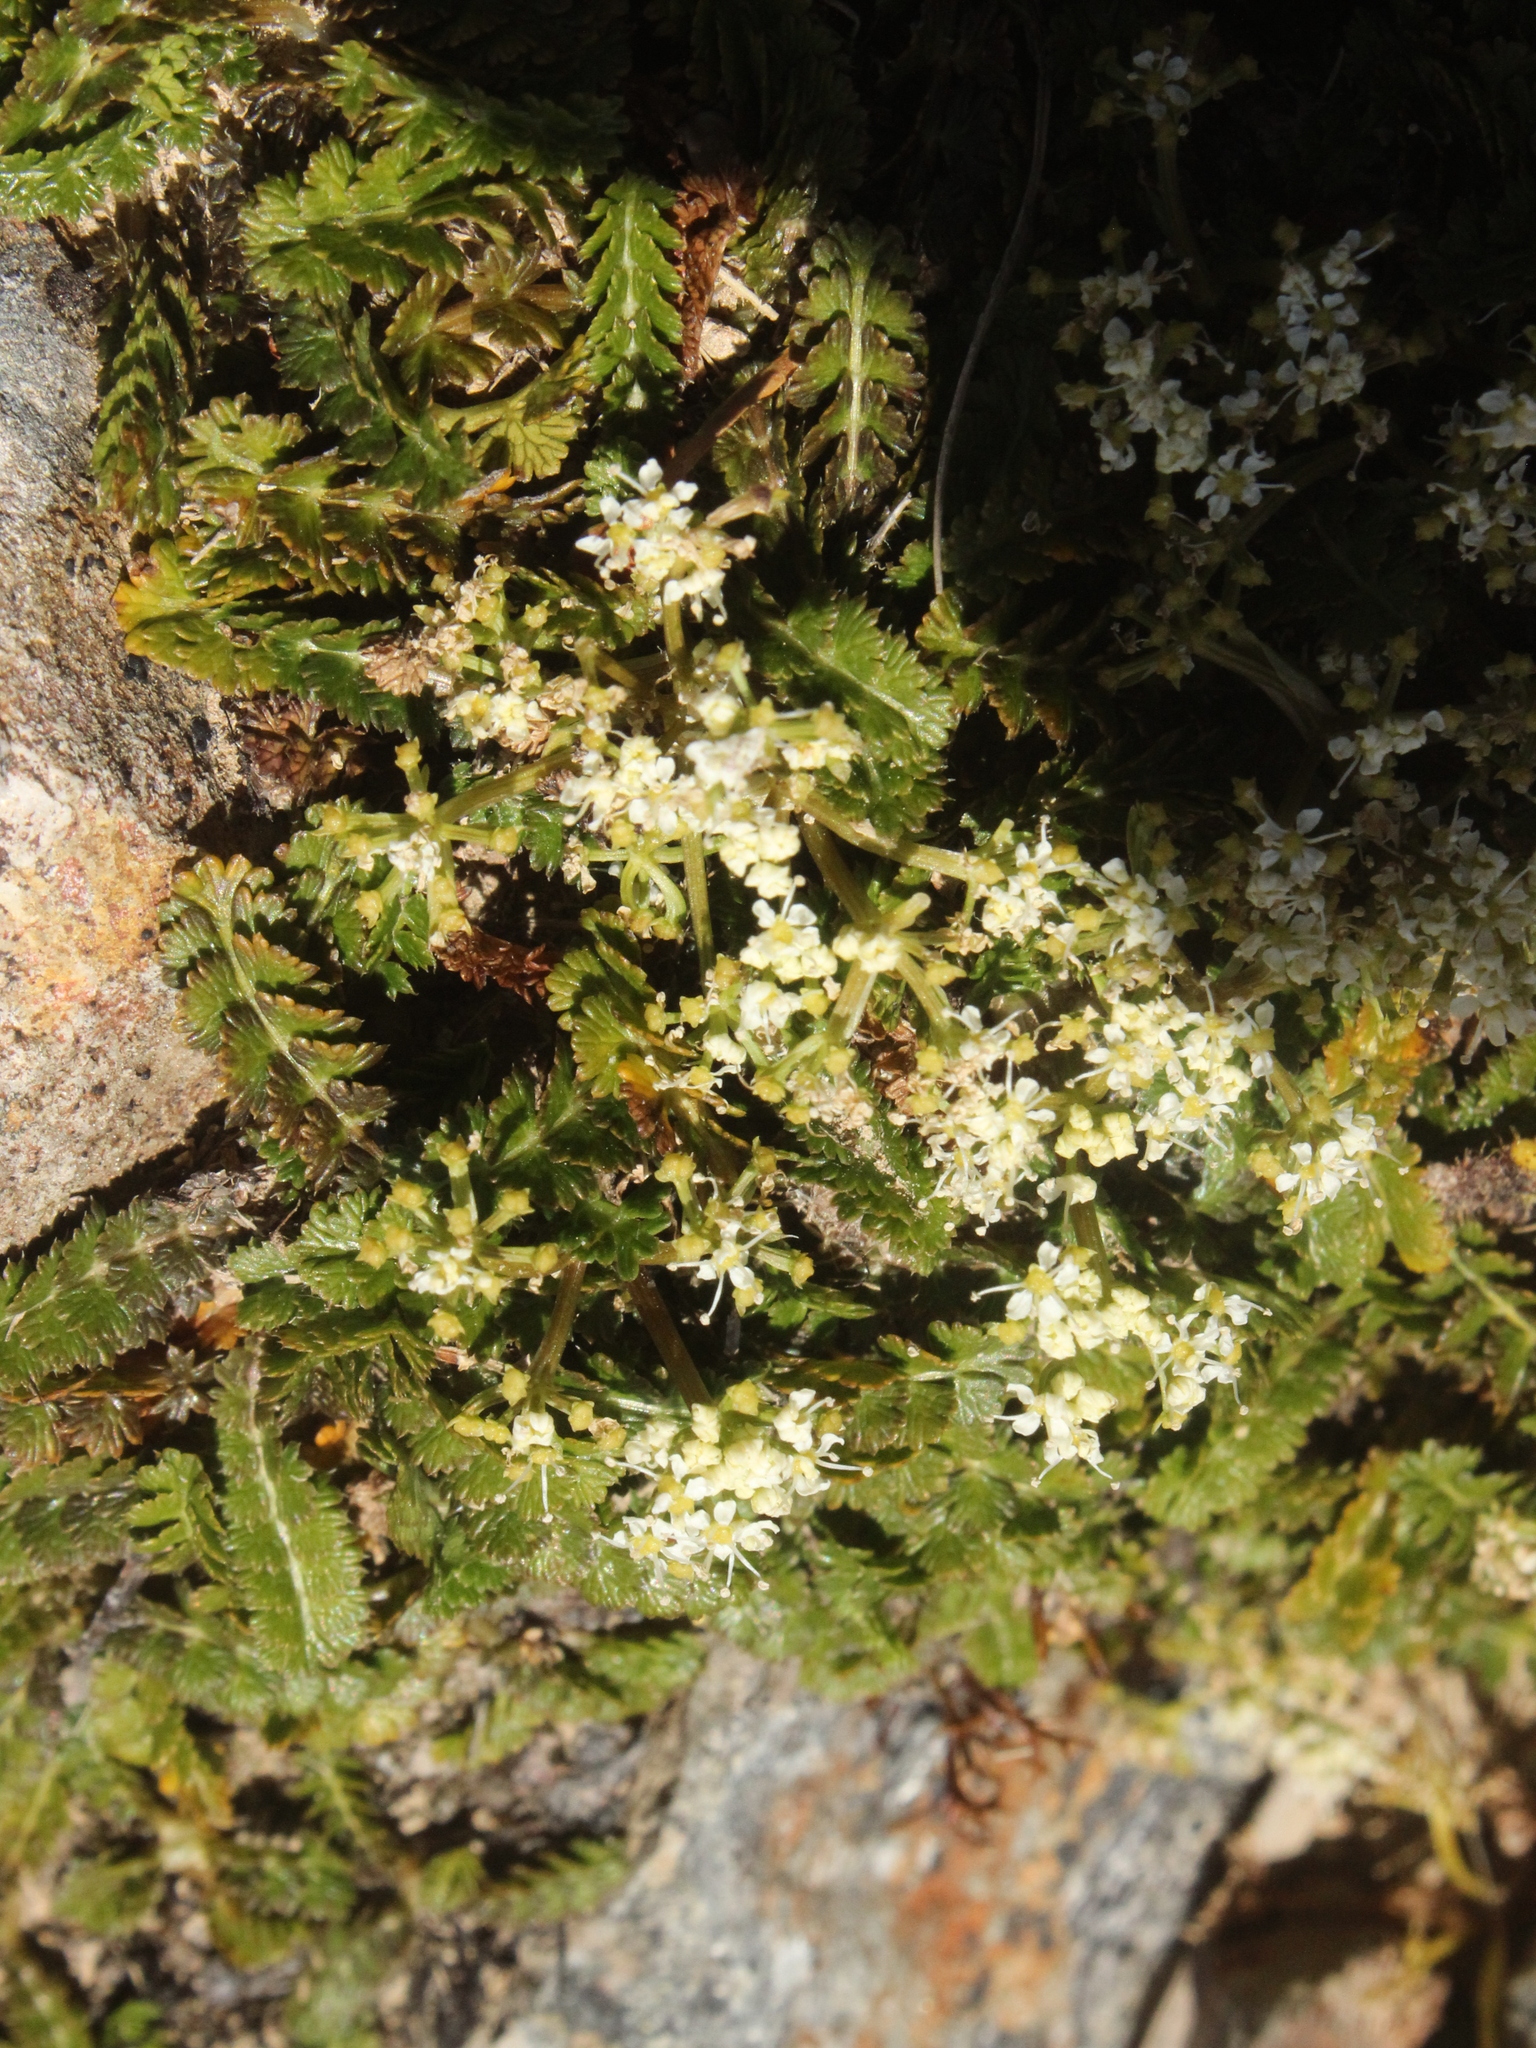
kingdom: Plantae
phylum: Tracheophyta
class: Magnoliopsida
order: Apiales
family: Apiaceae
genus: Anisotome
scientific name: Anisotome aromatica
